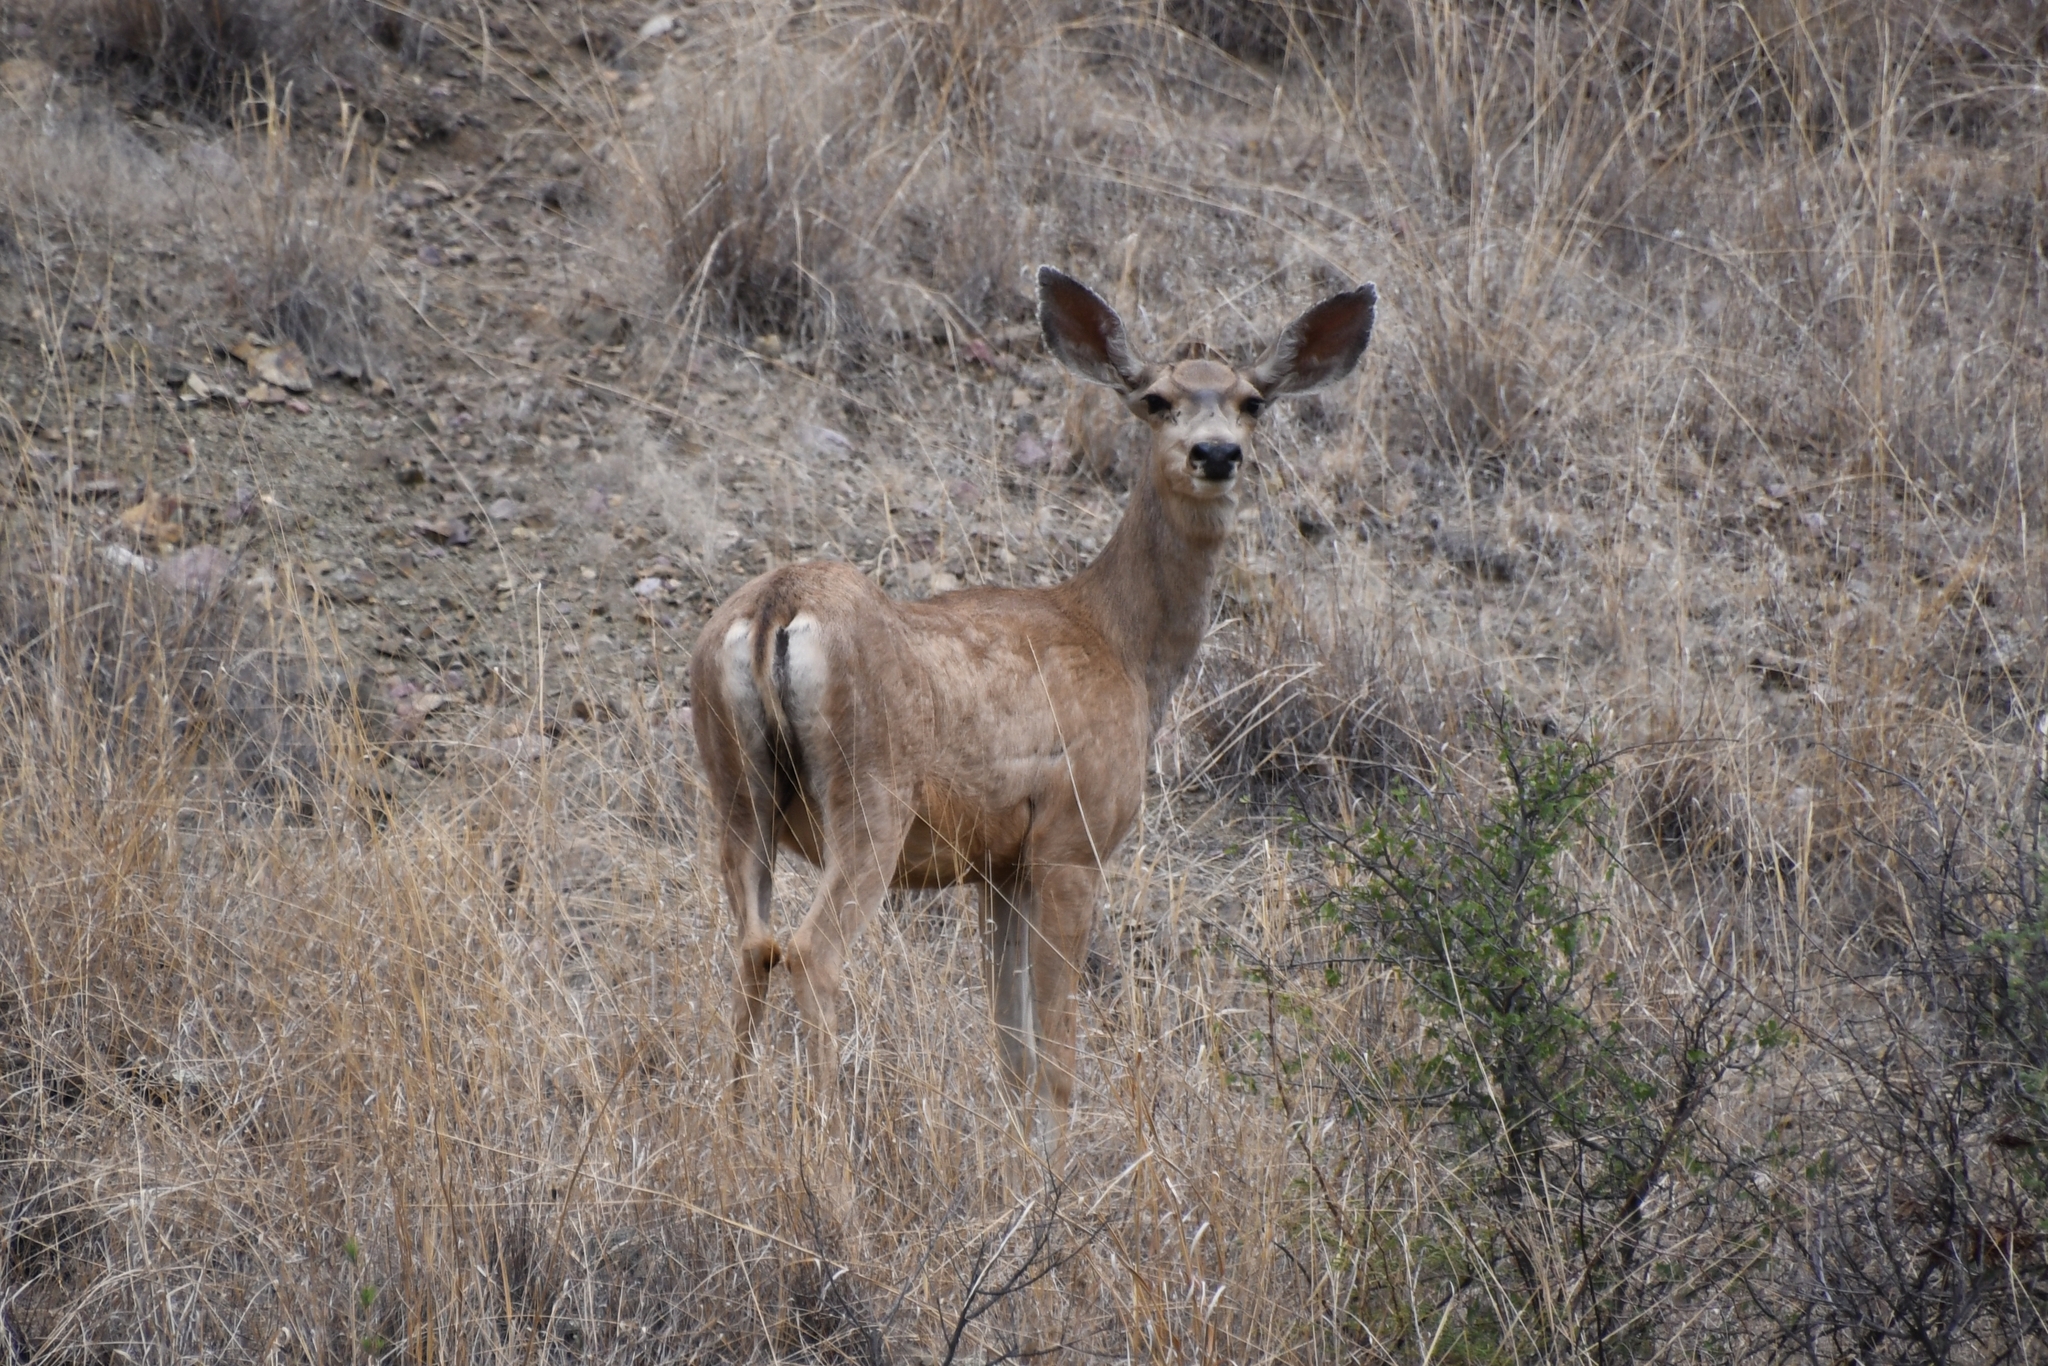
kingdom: Animalia
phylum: Chordata
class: Mammalia
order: Artiodactyla
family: Cervidae
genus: Odocoileus
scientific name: Odocoileus hemionus
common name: Mule deer
